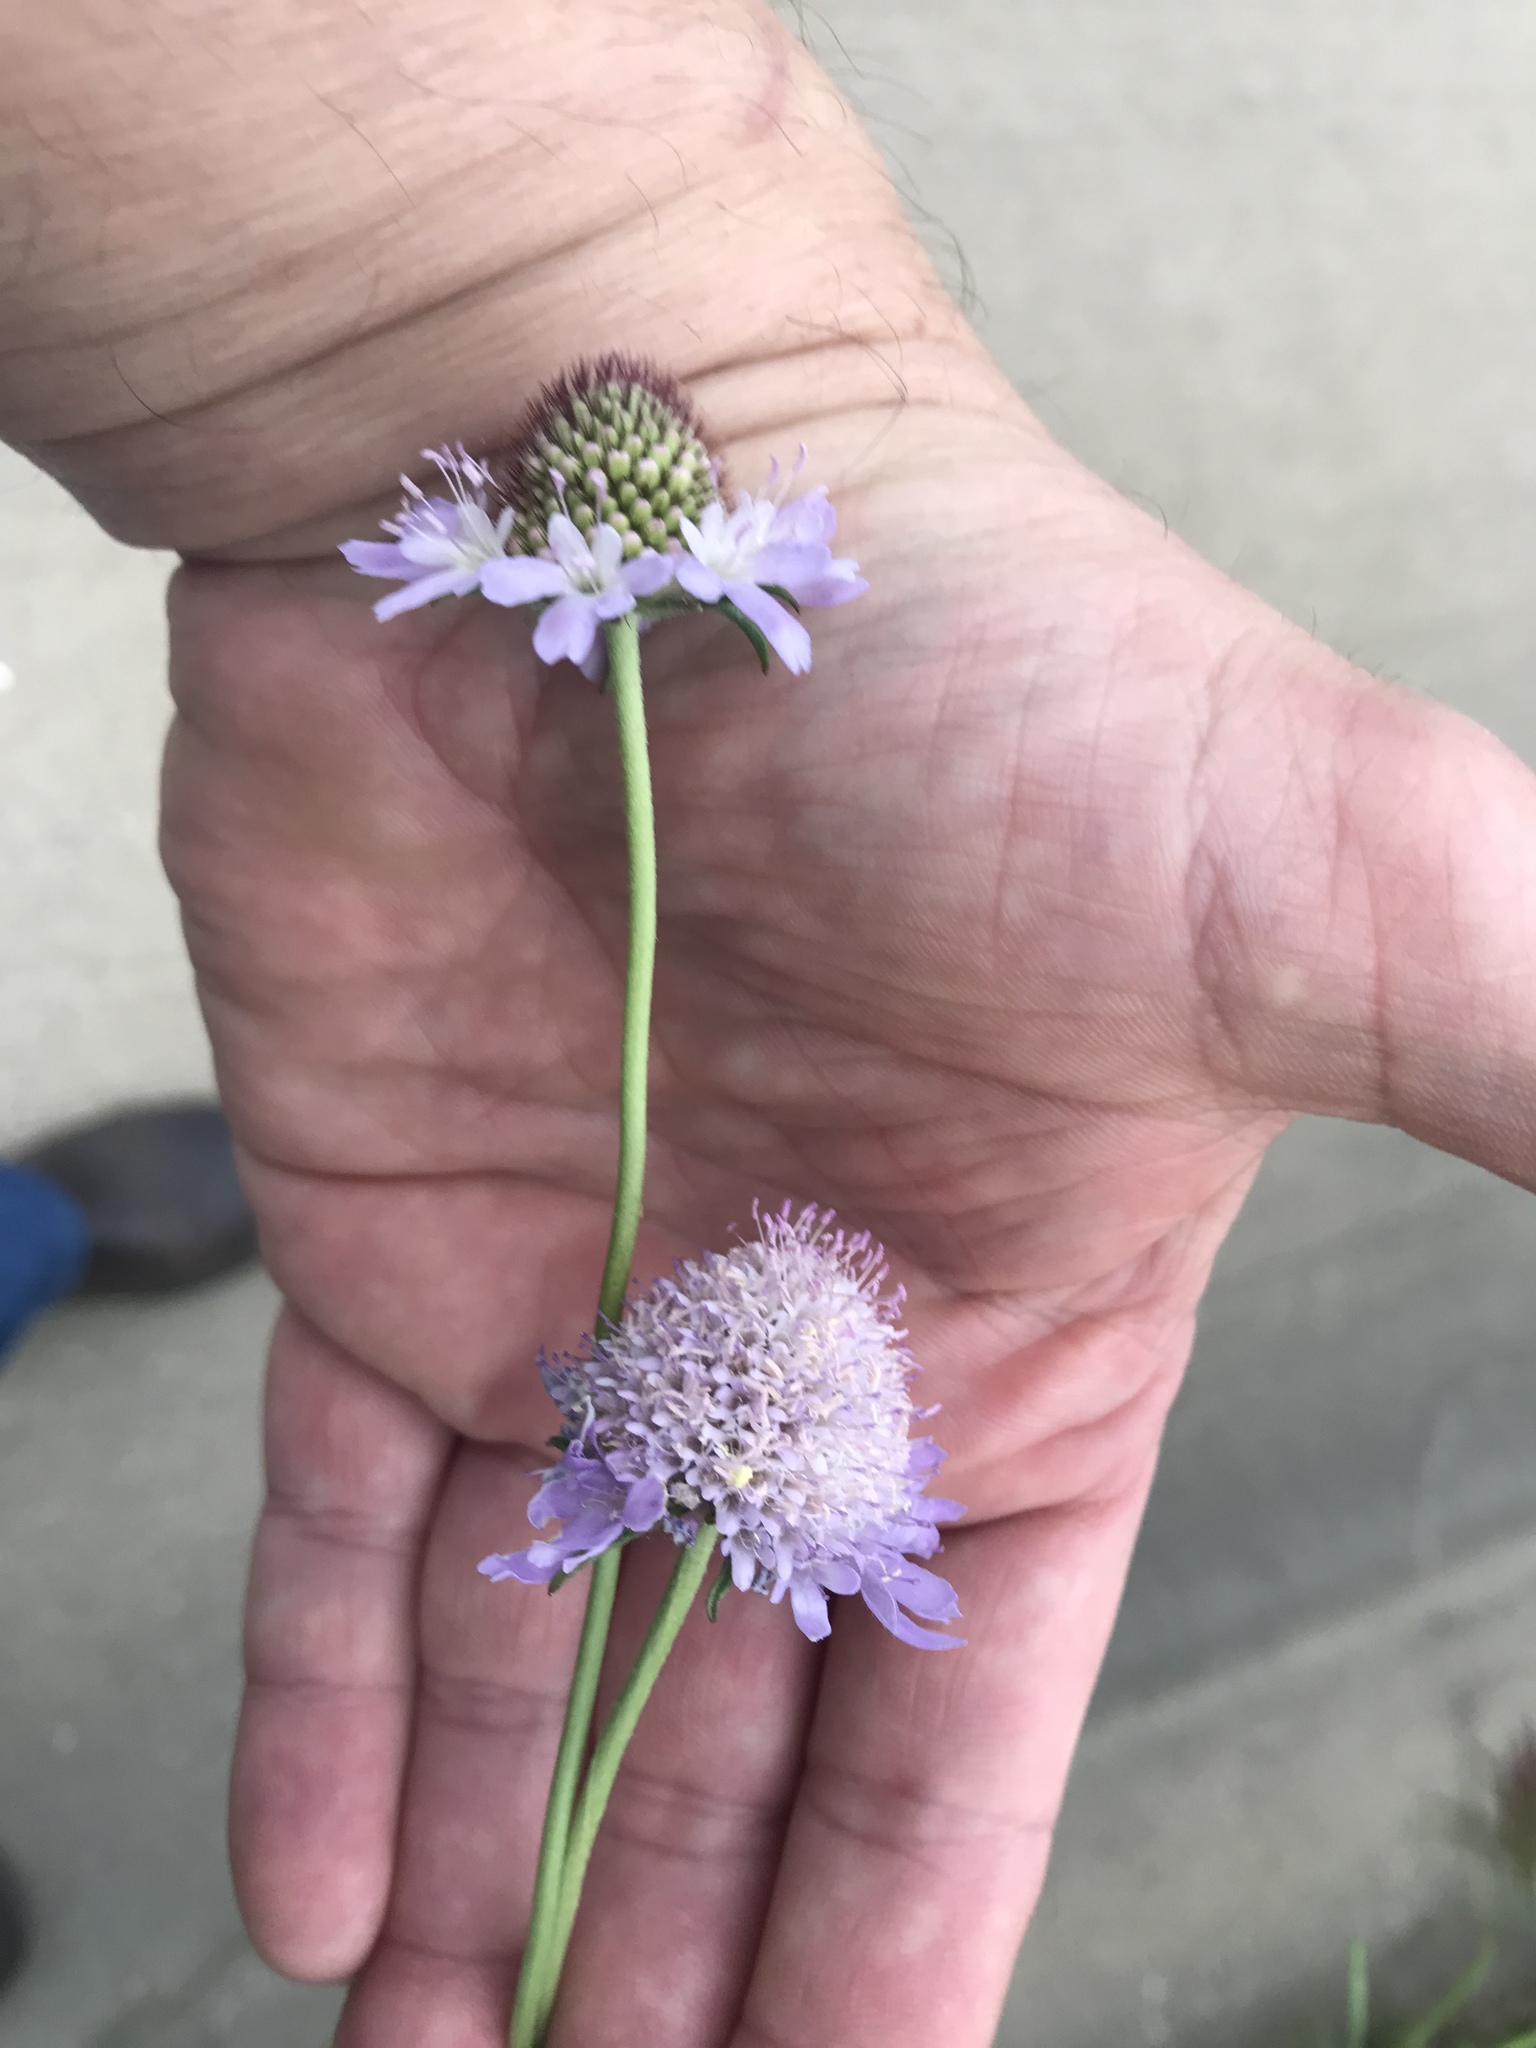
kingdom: Plantae
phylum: Tracheophyta
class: Magnoliopsida
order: Dipsacales
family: Caprifoliaceae
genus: Sixalix
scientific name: Sixalix atropurpurea
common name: Sweet scabious
